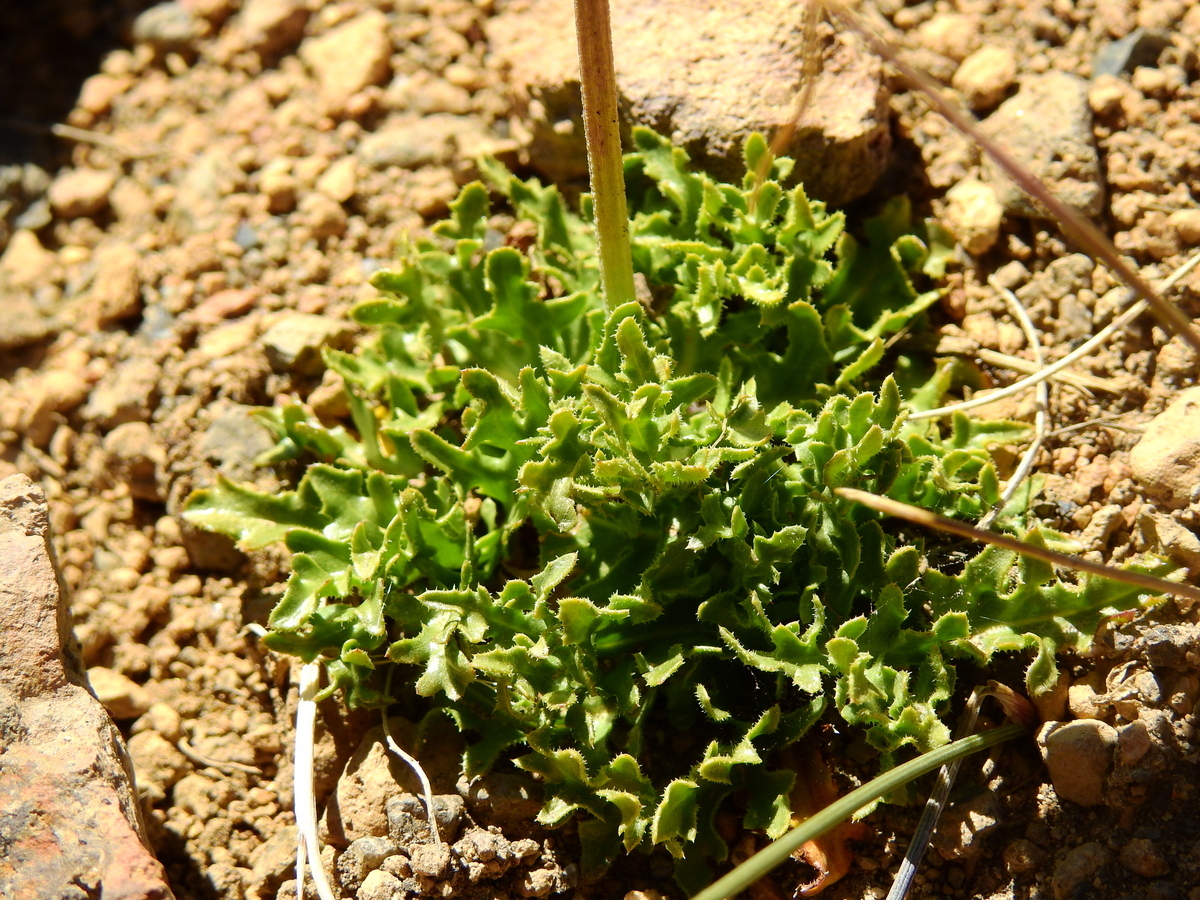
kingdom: Plantae
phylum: Tracheophyta
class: Magnoliopsida
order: Asterales
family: Asteraceae
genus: Hypochaeris
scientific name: Hypochaeris tenuifolia
